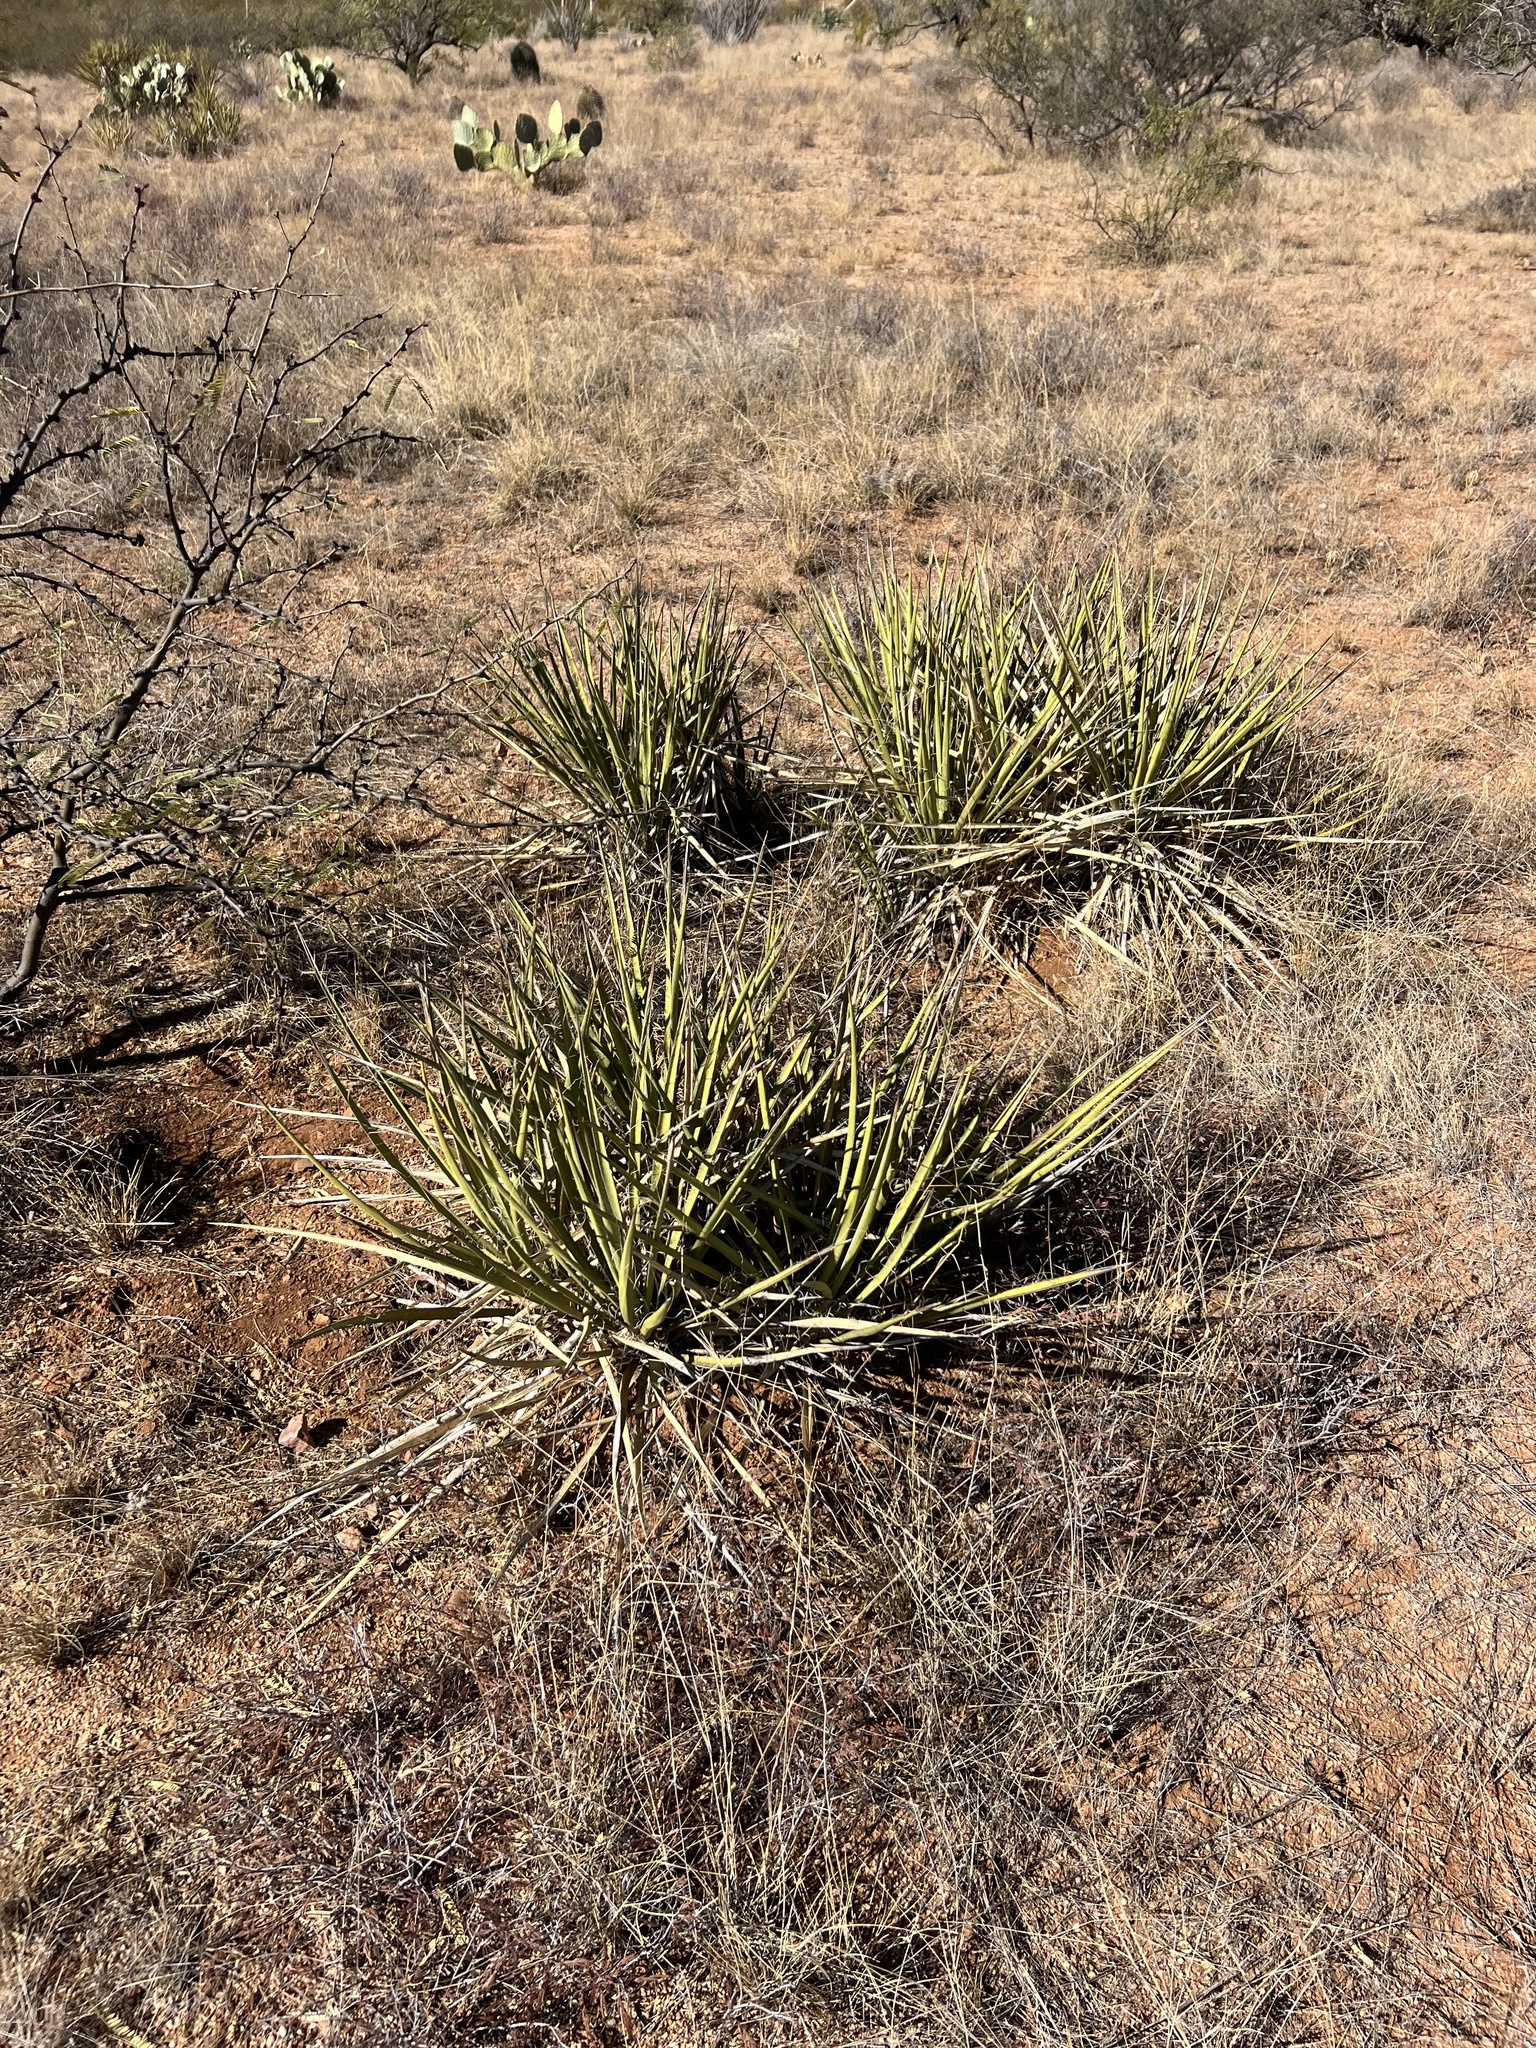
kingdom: Plantae
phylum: Tracheophyta
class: Liliopsida
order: Asparagales
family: Asparagaceae
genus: Yucca
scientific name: Yucca baccata
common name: Banana yucca
